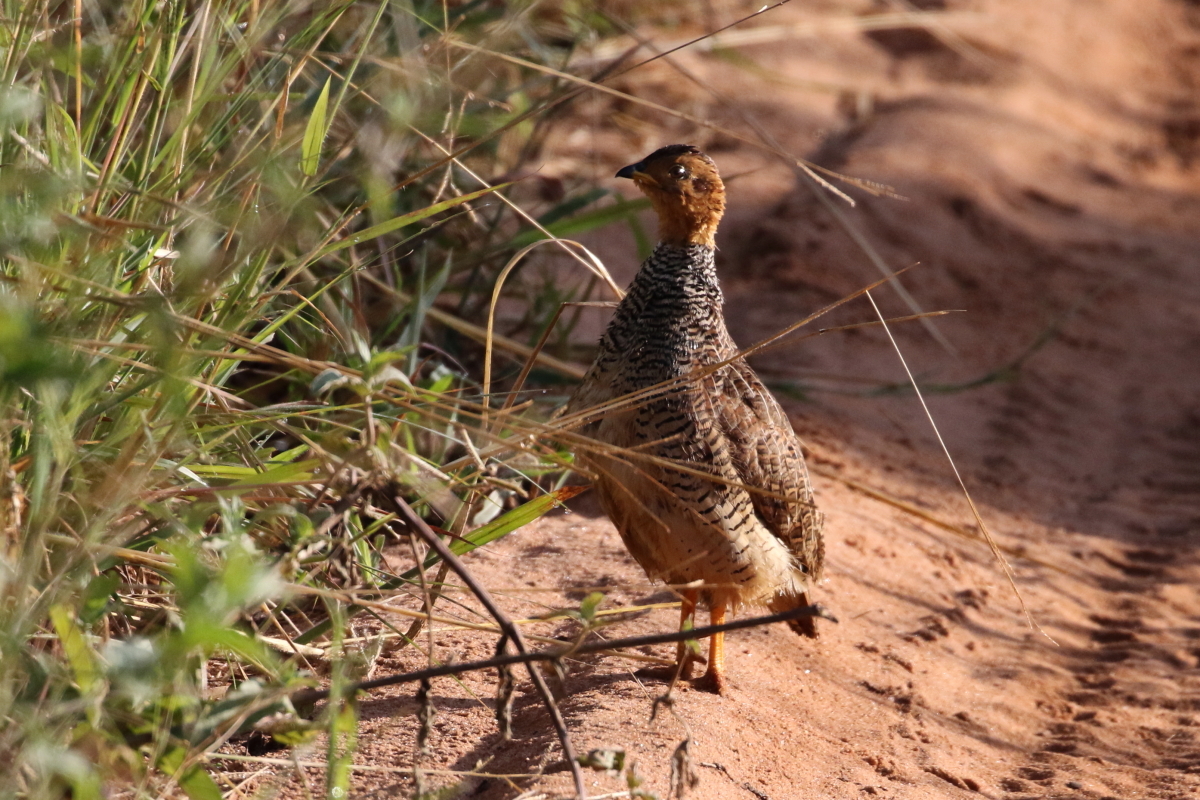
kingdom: Animalia
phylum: Chordata
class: Aves
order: Galliformes
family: Phasianidae
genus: Campocolinus
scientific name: Campocolinus coqui
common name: Coqui francolin
